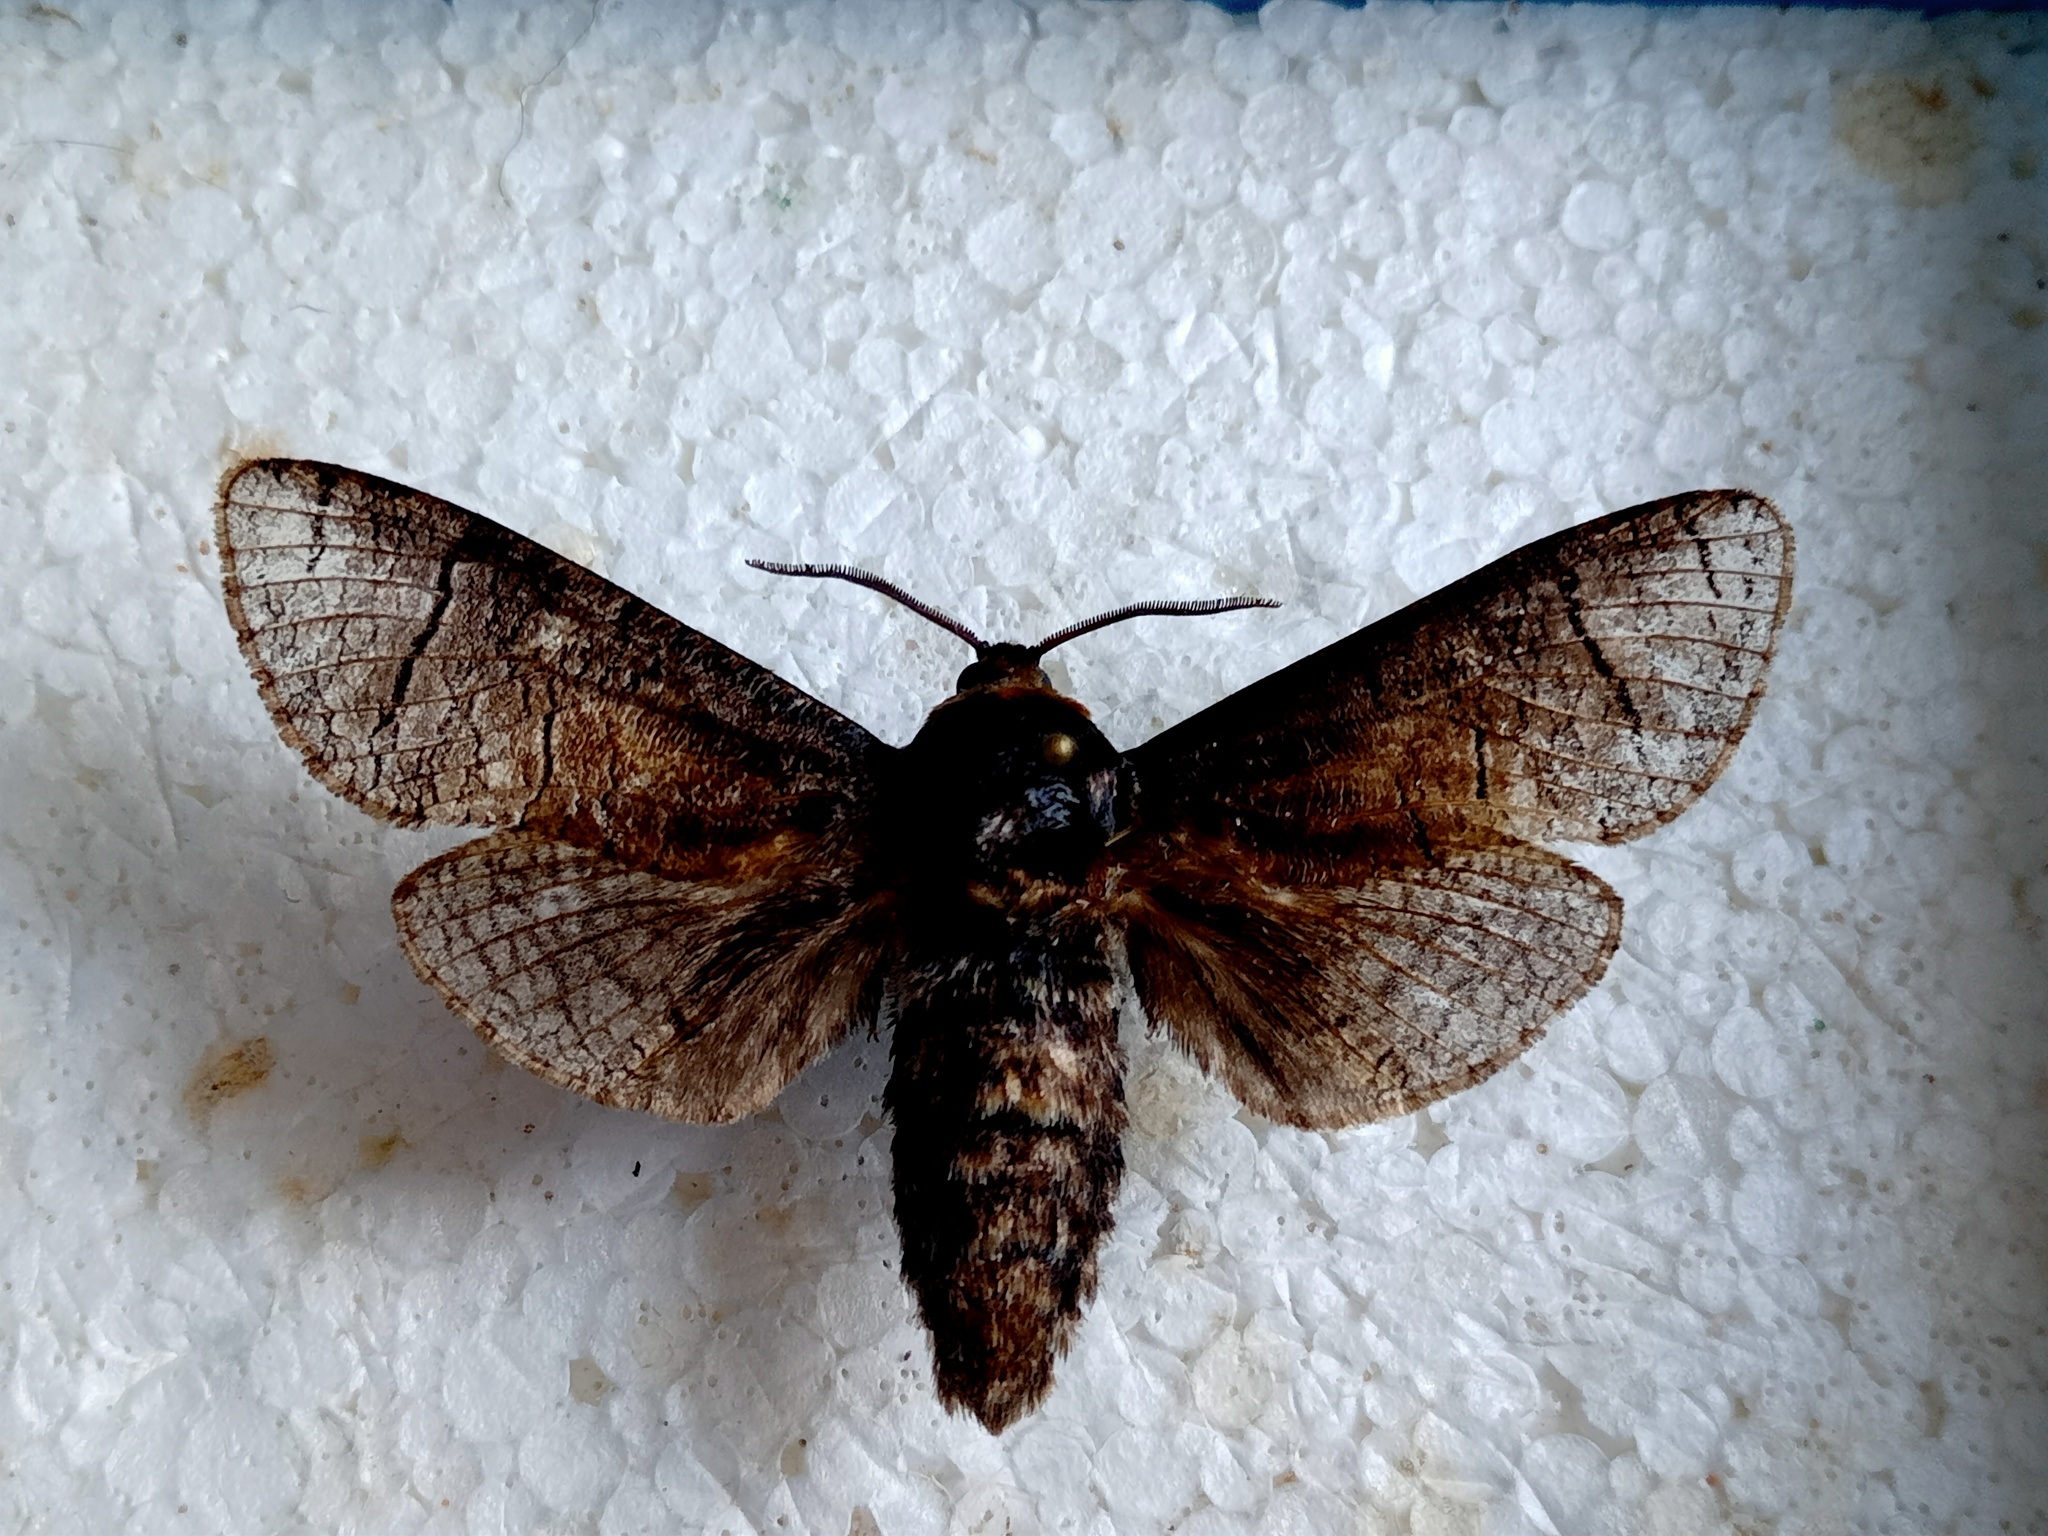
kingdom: Animalia
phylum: Arthropoda
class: Insecta
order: Lepidoptera
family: Cossidae
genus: Cossus
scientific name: Cossus cossus
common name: Goat moth
